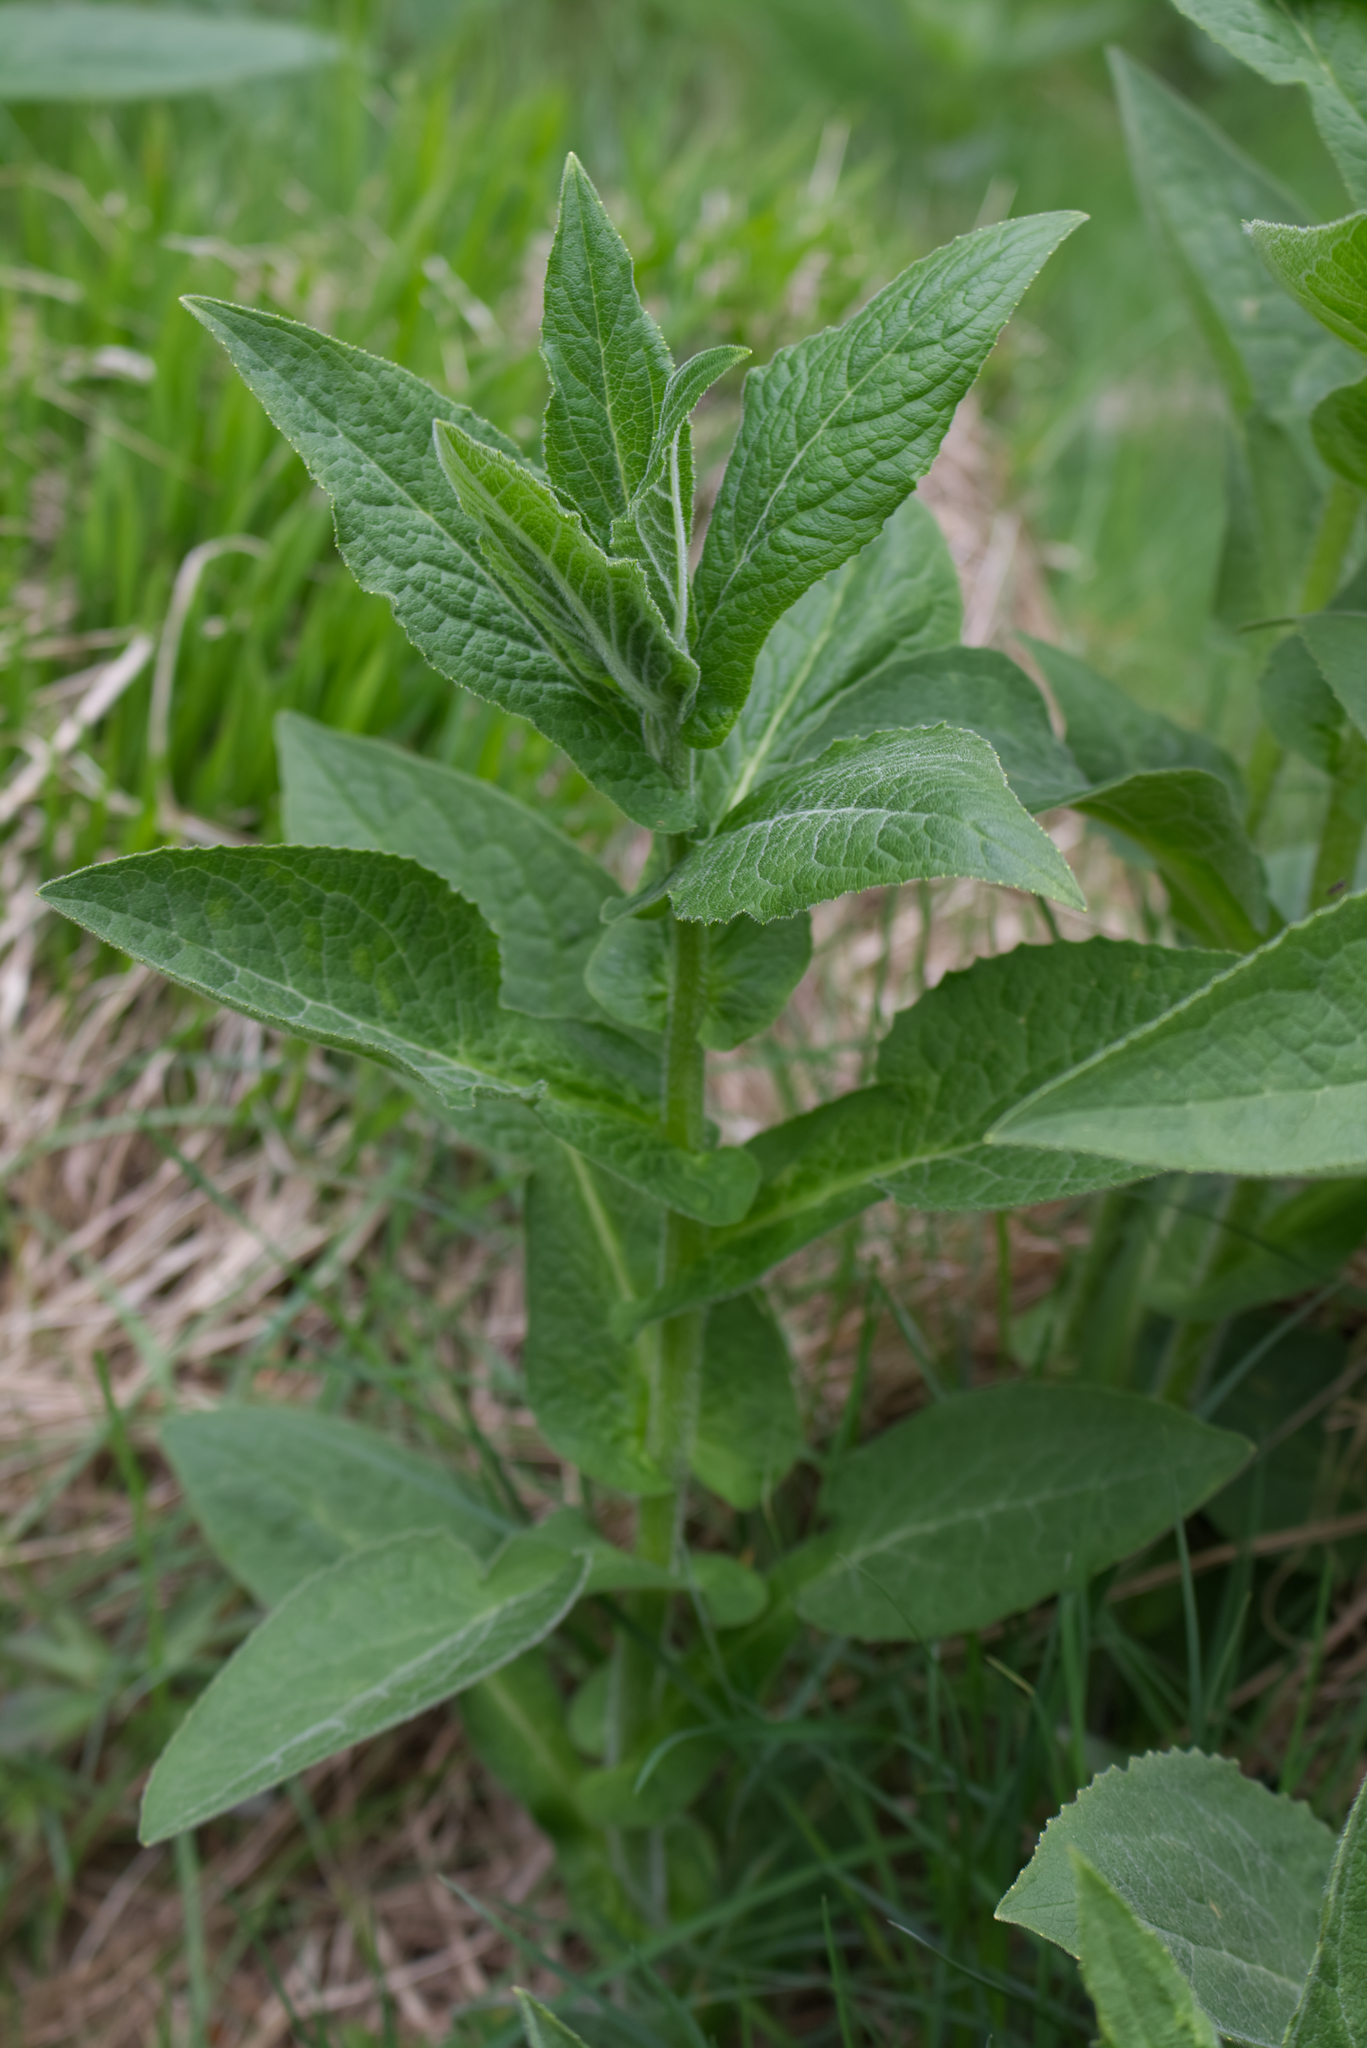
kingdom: Plantae
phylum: Tracheophyta
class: Magnoliopsida
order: Asterales
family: Asteraceae
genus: Doronicum
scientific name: Doronicum austriacum
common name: Austrian leopard's-bane
